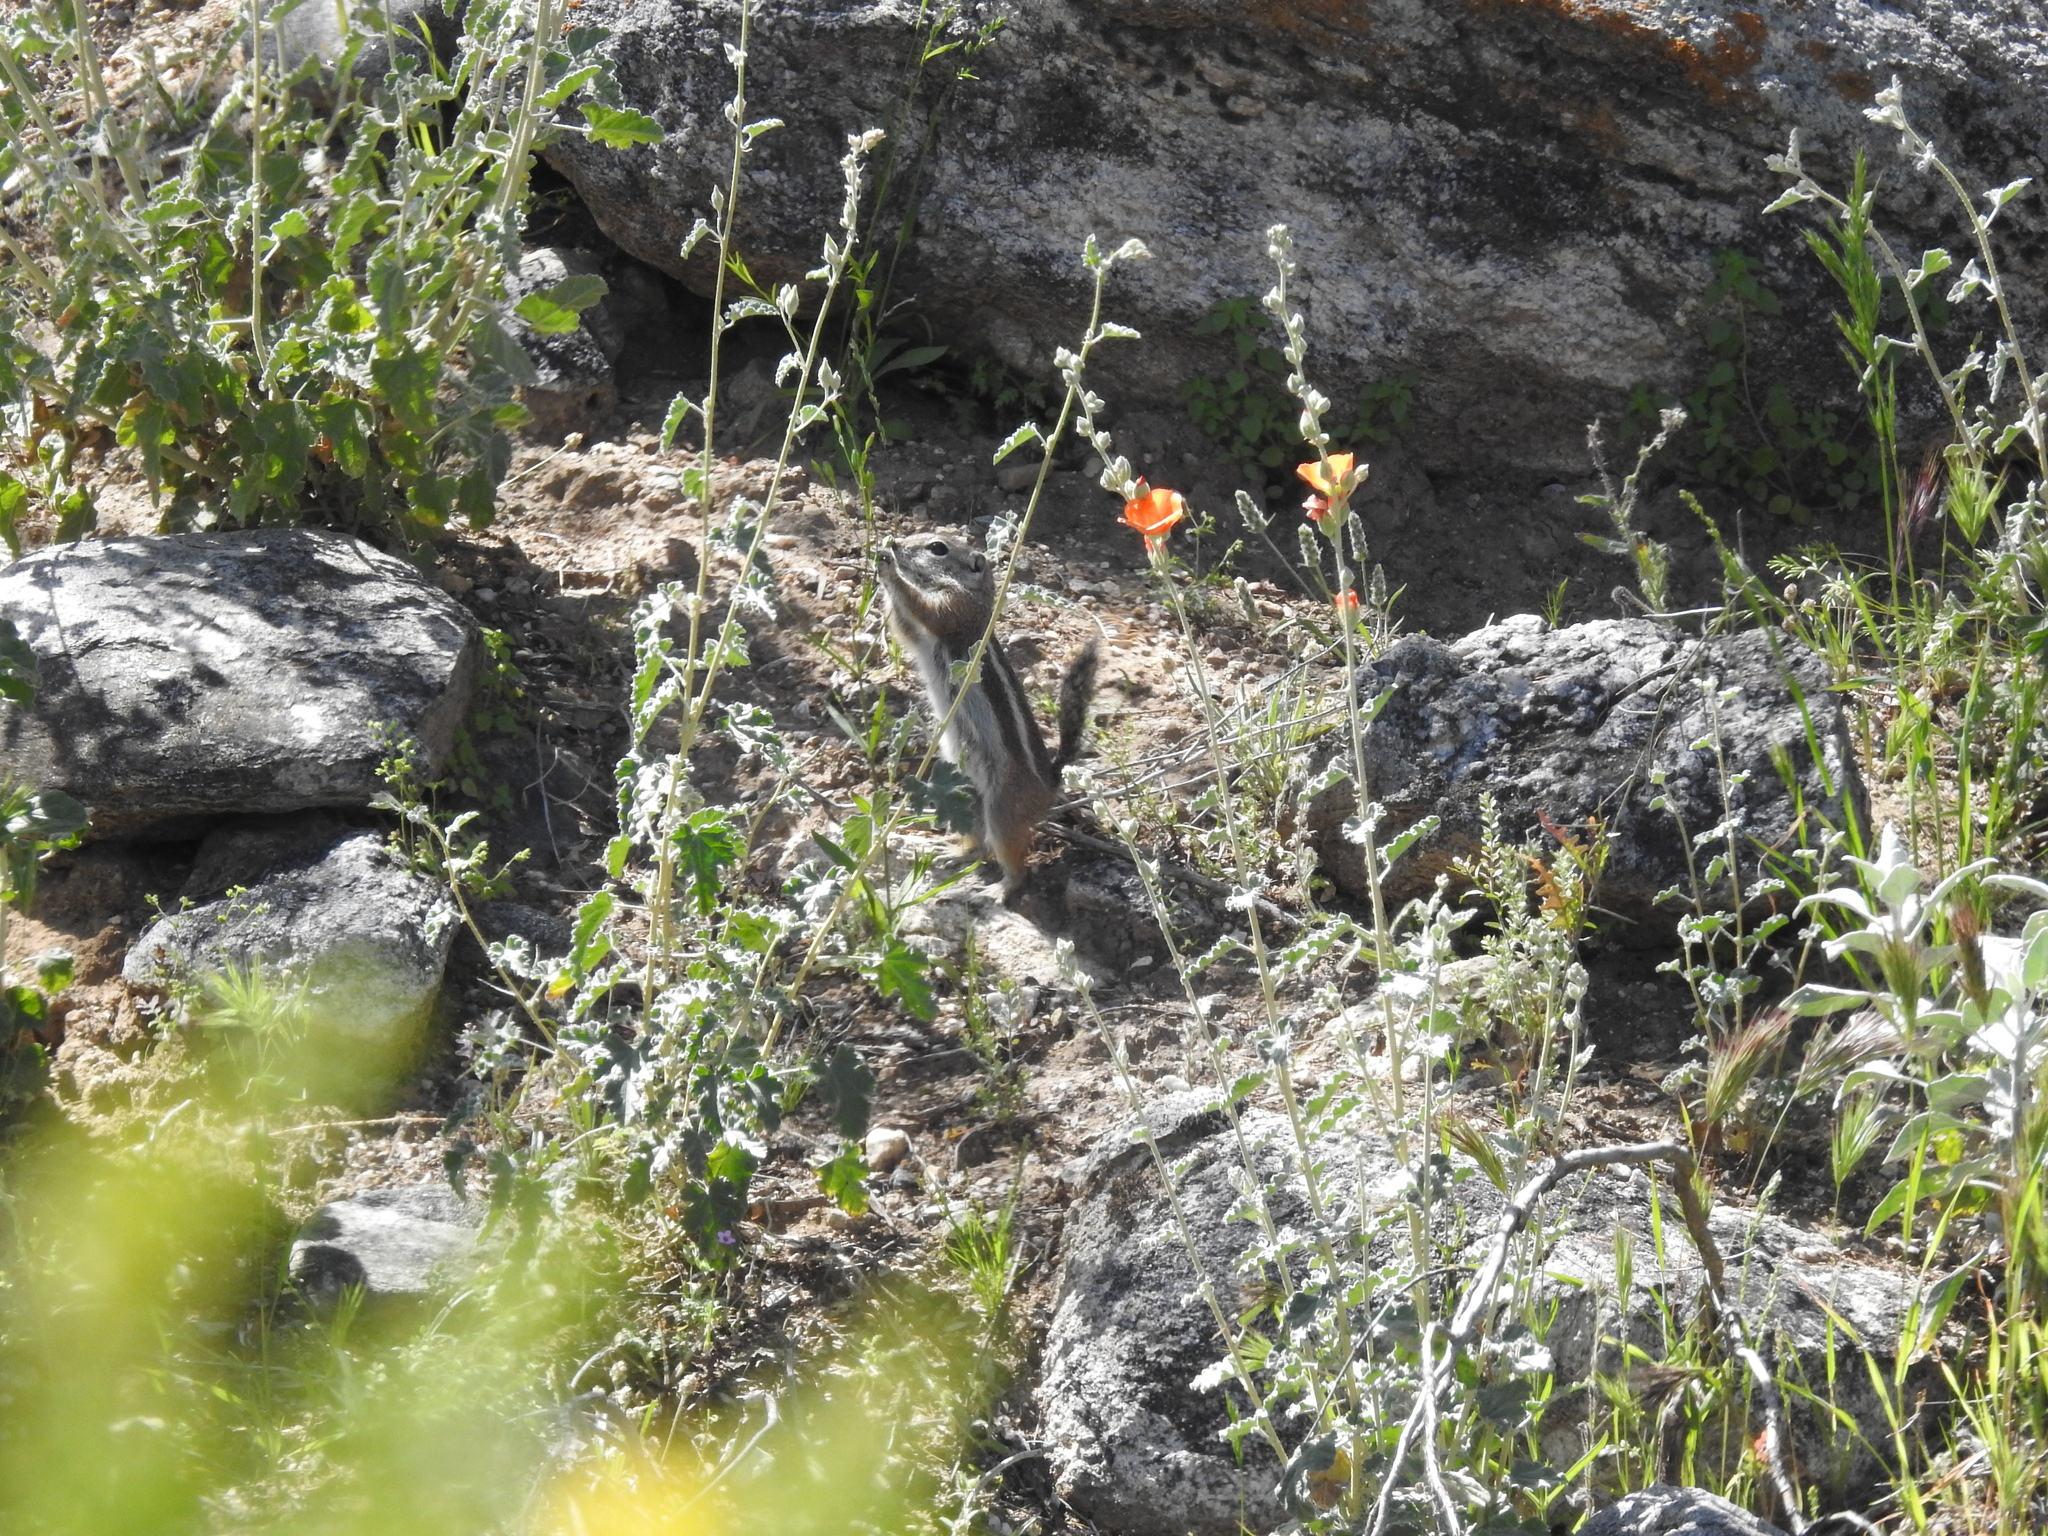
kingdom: Animalia
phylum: Chordata
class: Mammalia
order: Rodentia
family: Sciuridae
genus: Ammospermophilus
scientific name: Ammospermophilus harrisii
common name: Harris's antelope squirrel
